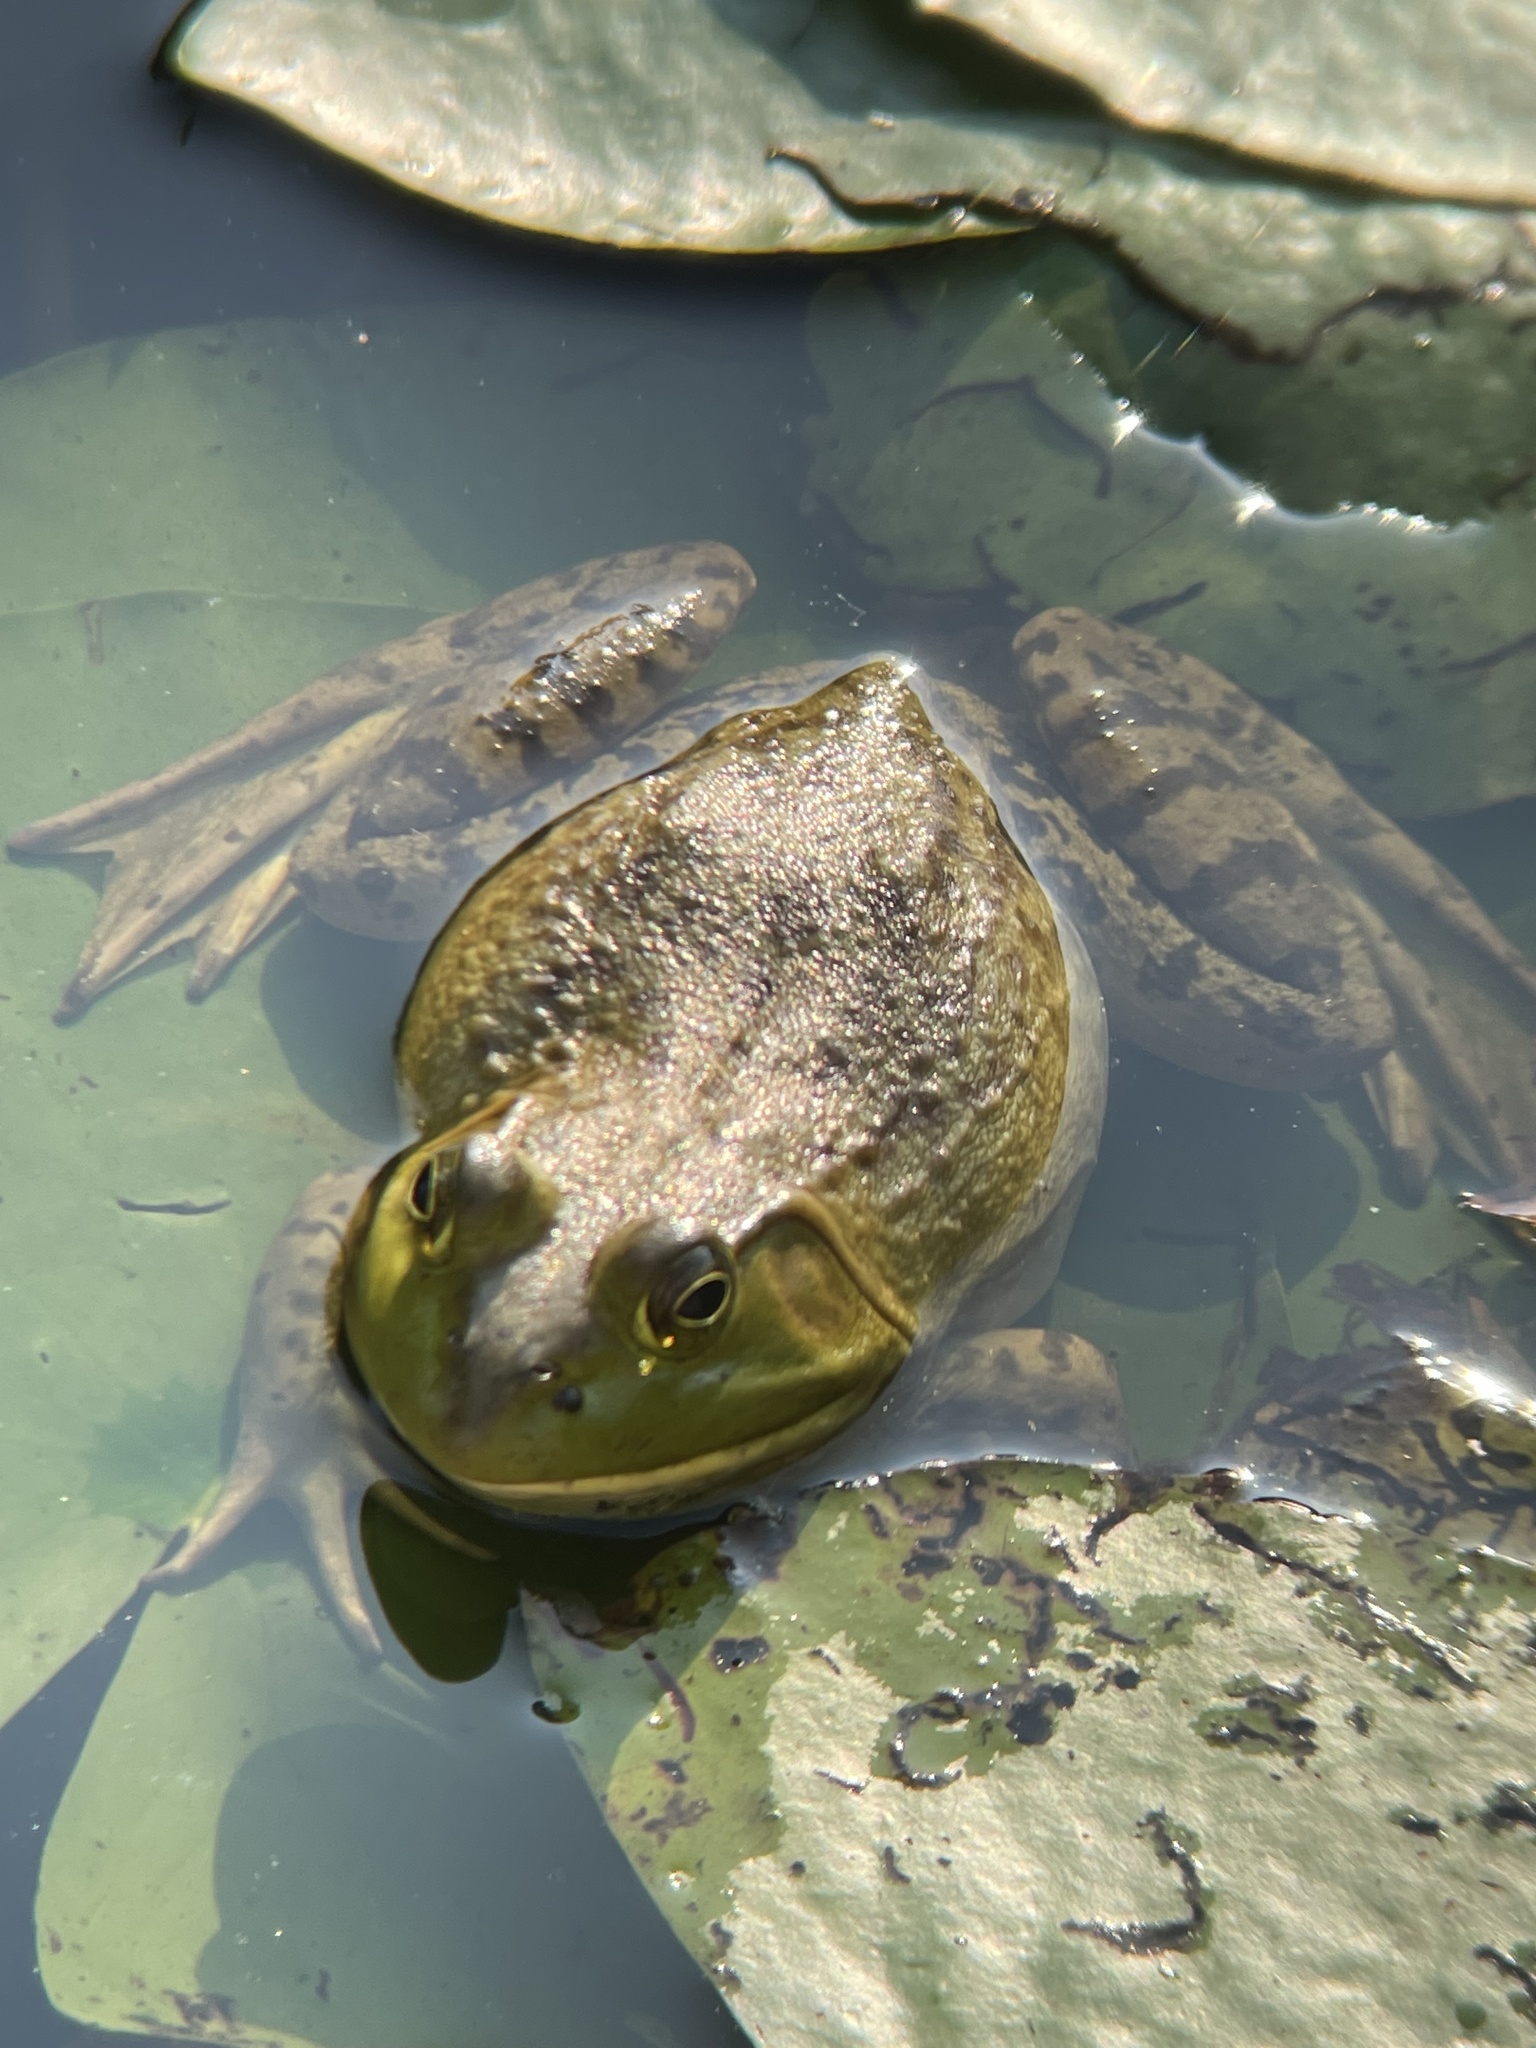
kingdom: Animalia
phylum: Chordata
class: Amphibia
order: Anura
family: Ranidae
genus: Lithobates
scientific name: Lithobates catesbeianus
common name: American bullfrog
